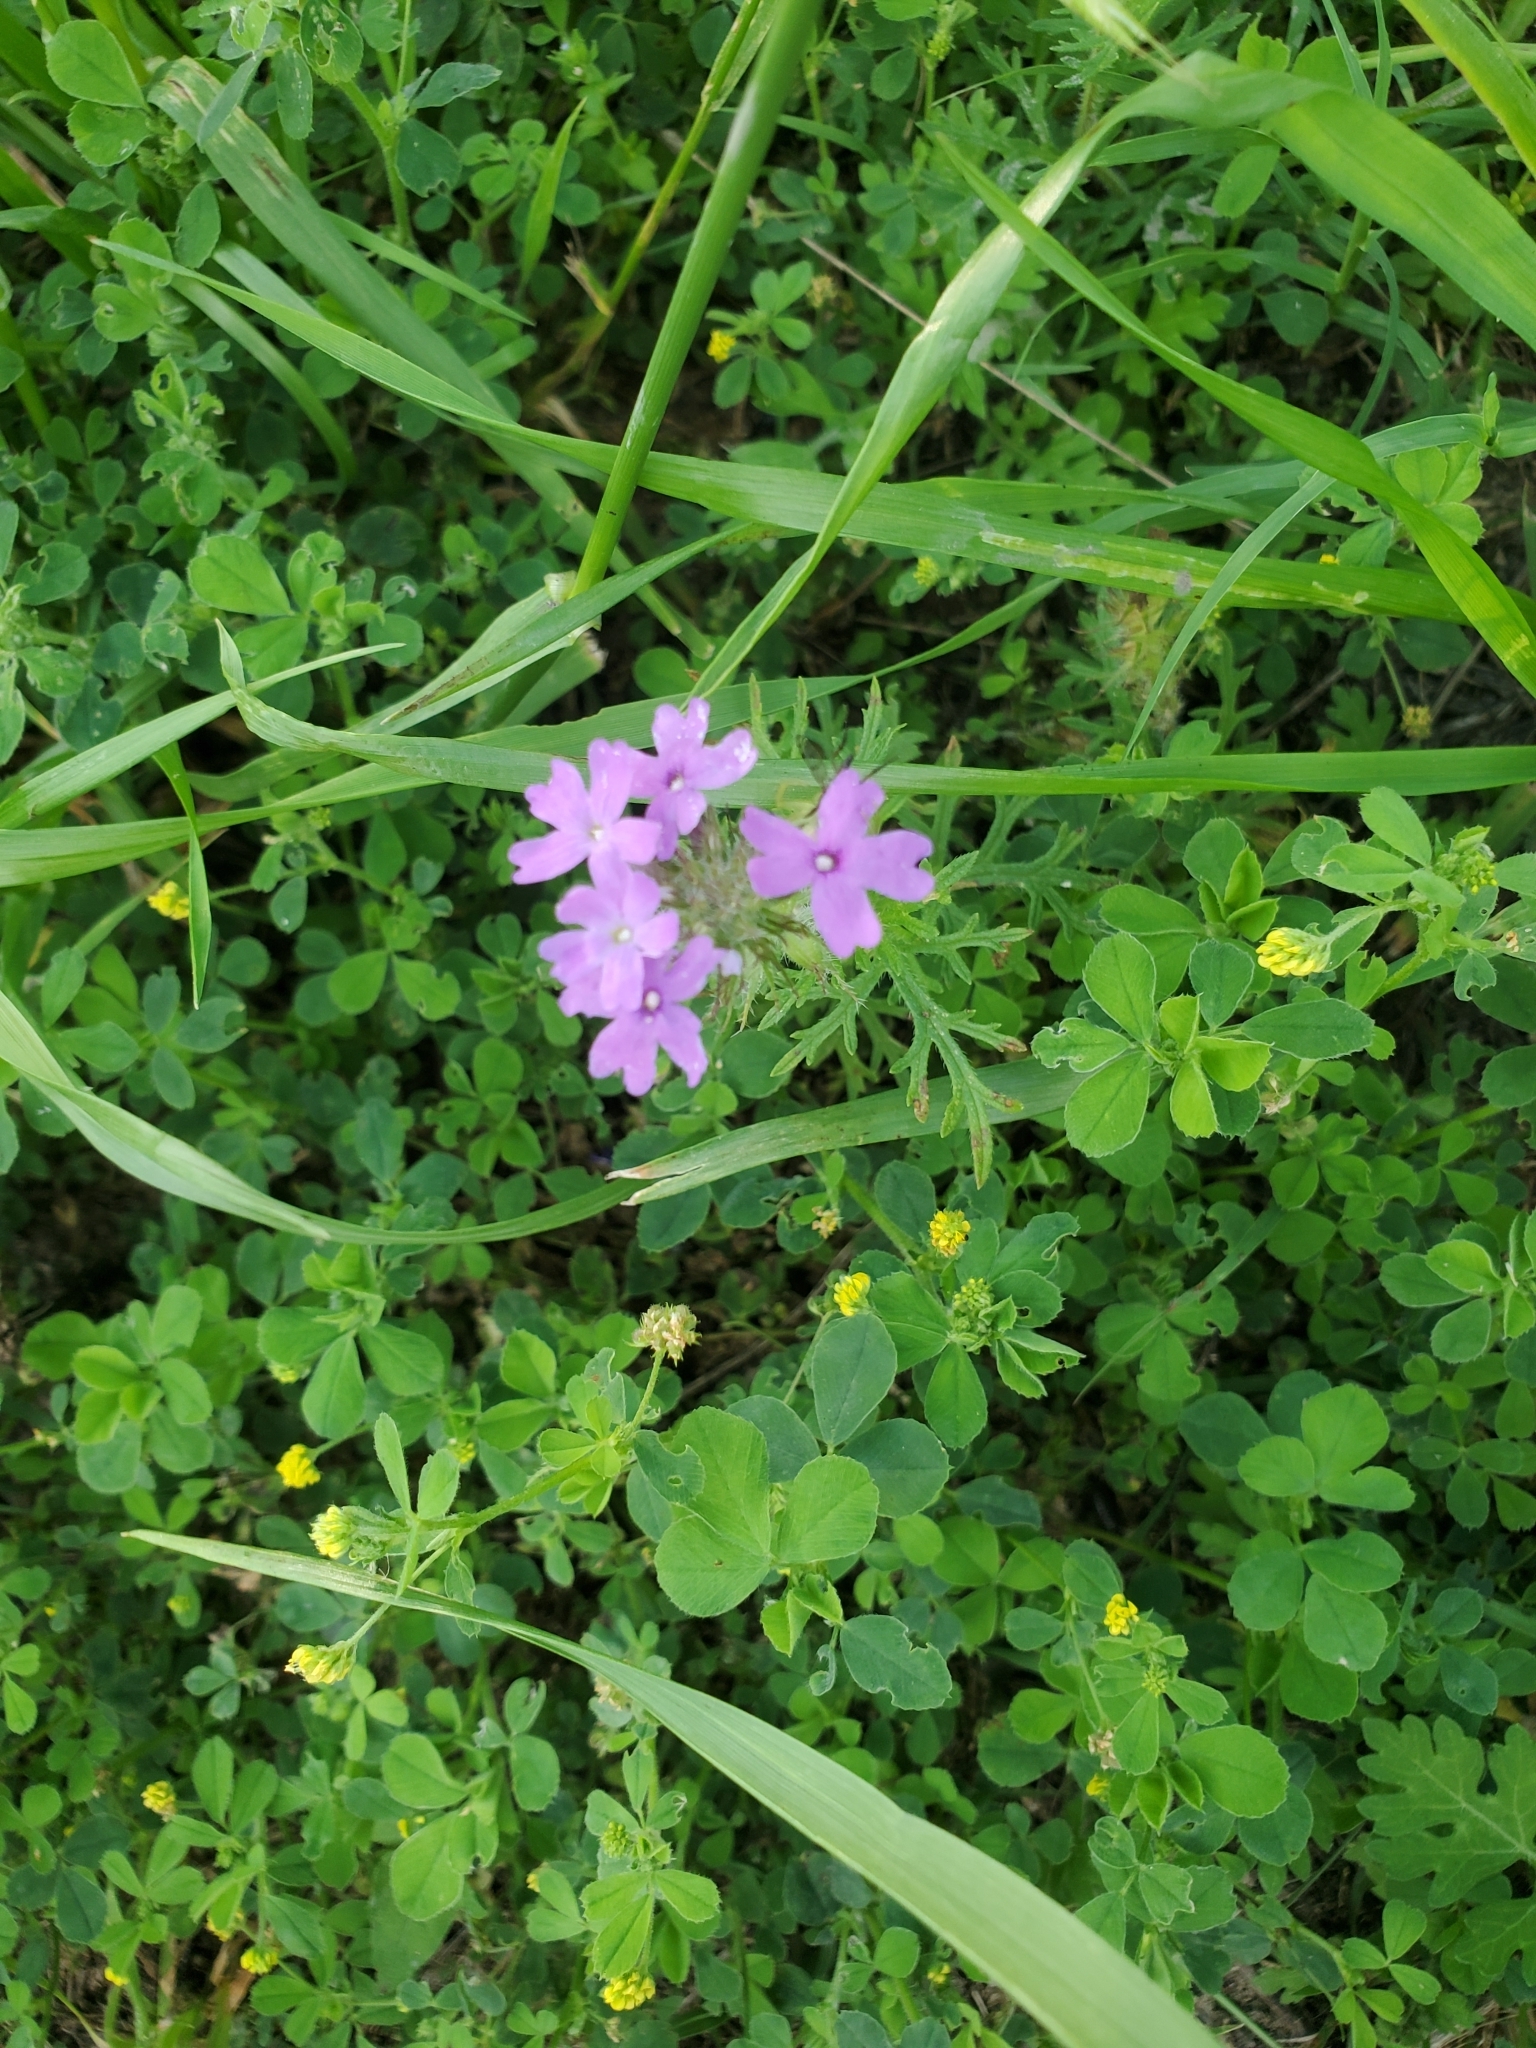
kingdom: Plantae
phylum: Tracheophyta
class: Magnoliopsida
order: Lamiales
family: Verbenaceae
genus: Verbena
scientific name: Verbena bipinnatifida
